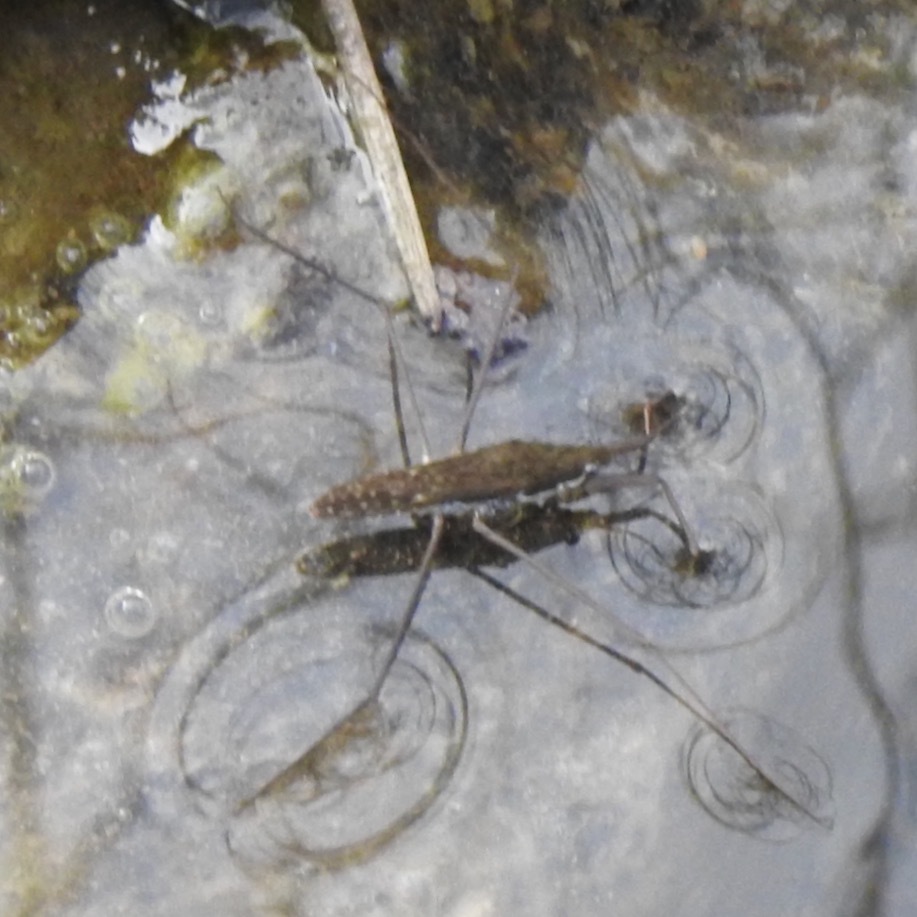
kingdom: Animalia
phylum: Arthropoda
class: Insecta
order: Hemiptera
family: Gerridae
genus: Aquarius
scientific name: Aquarius remigis
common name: Common water strider
